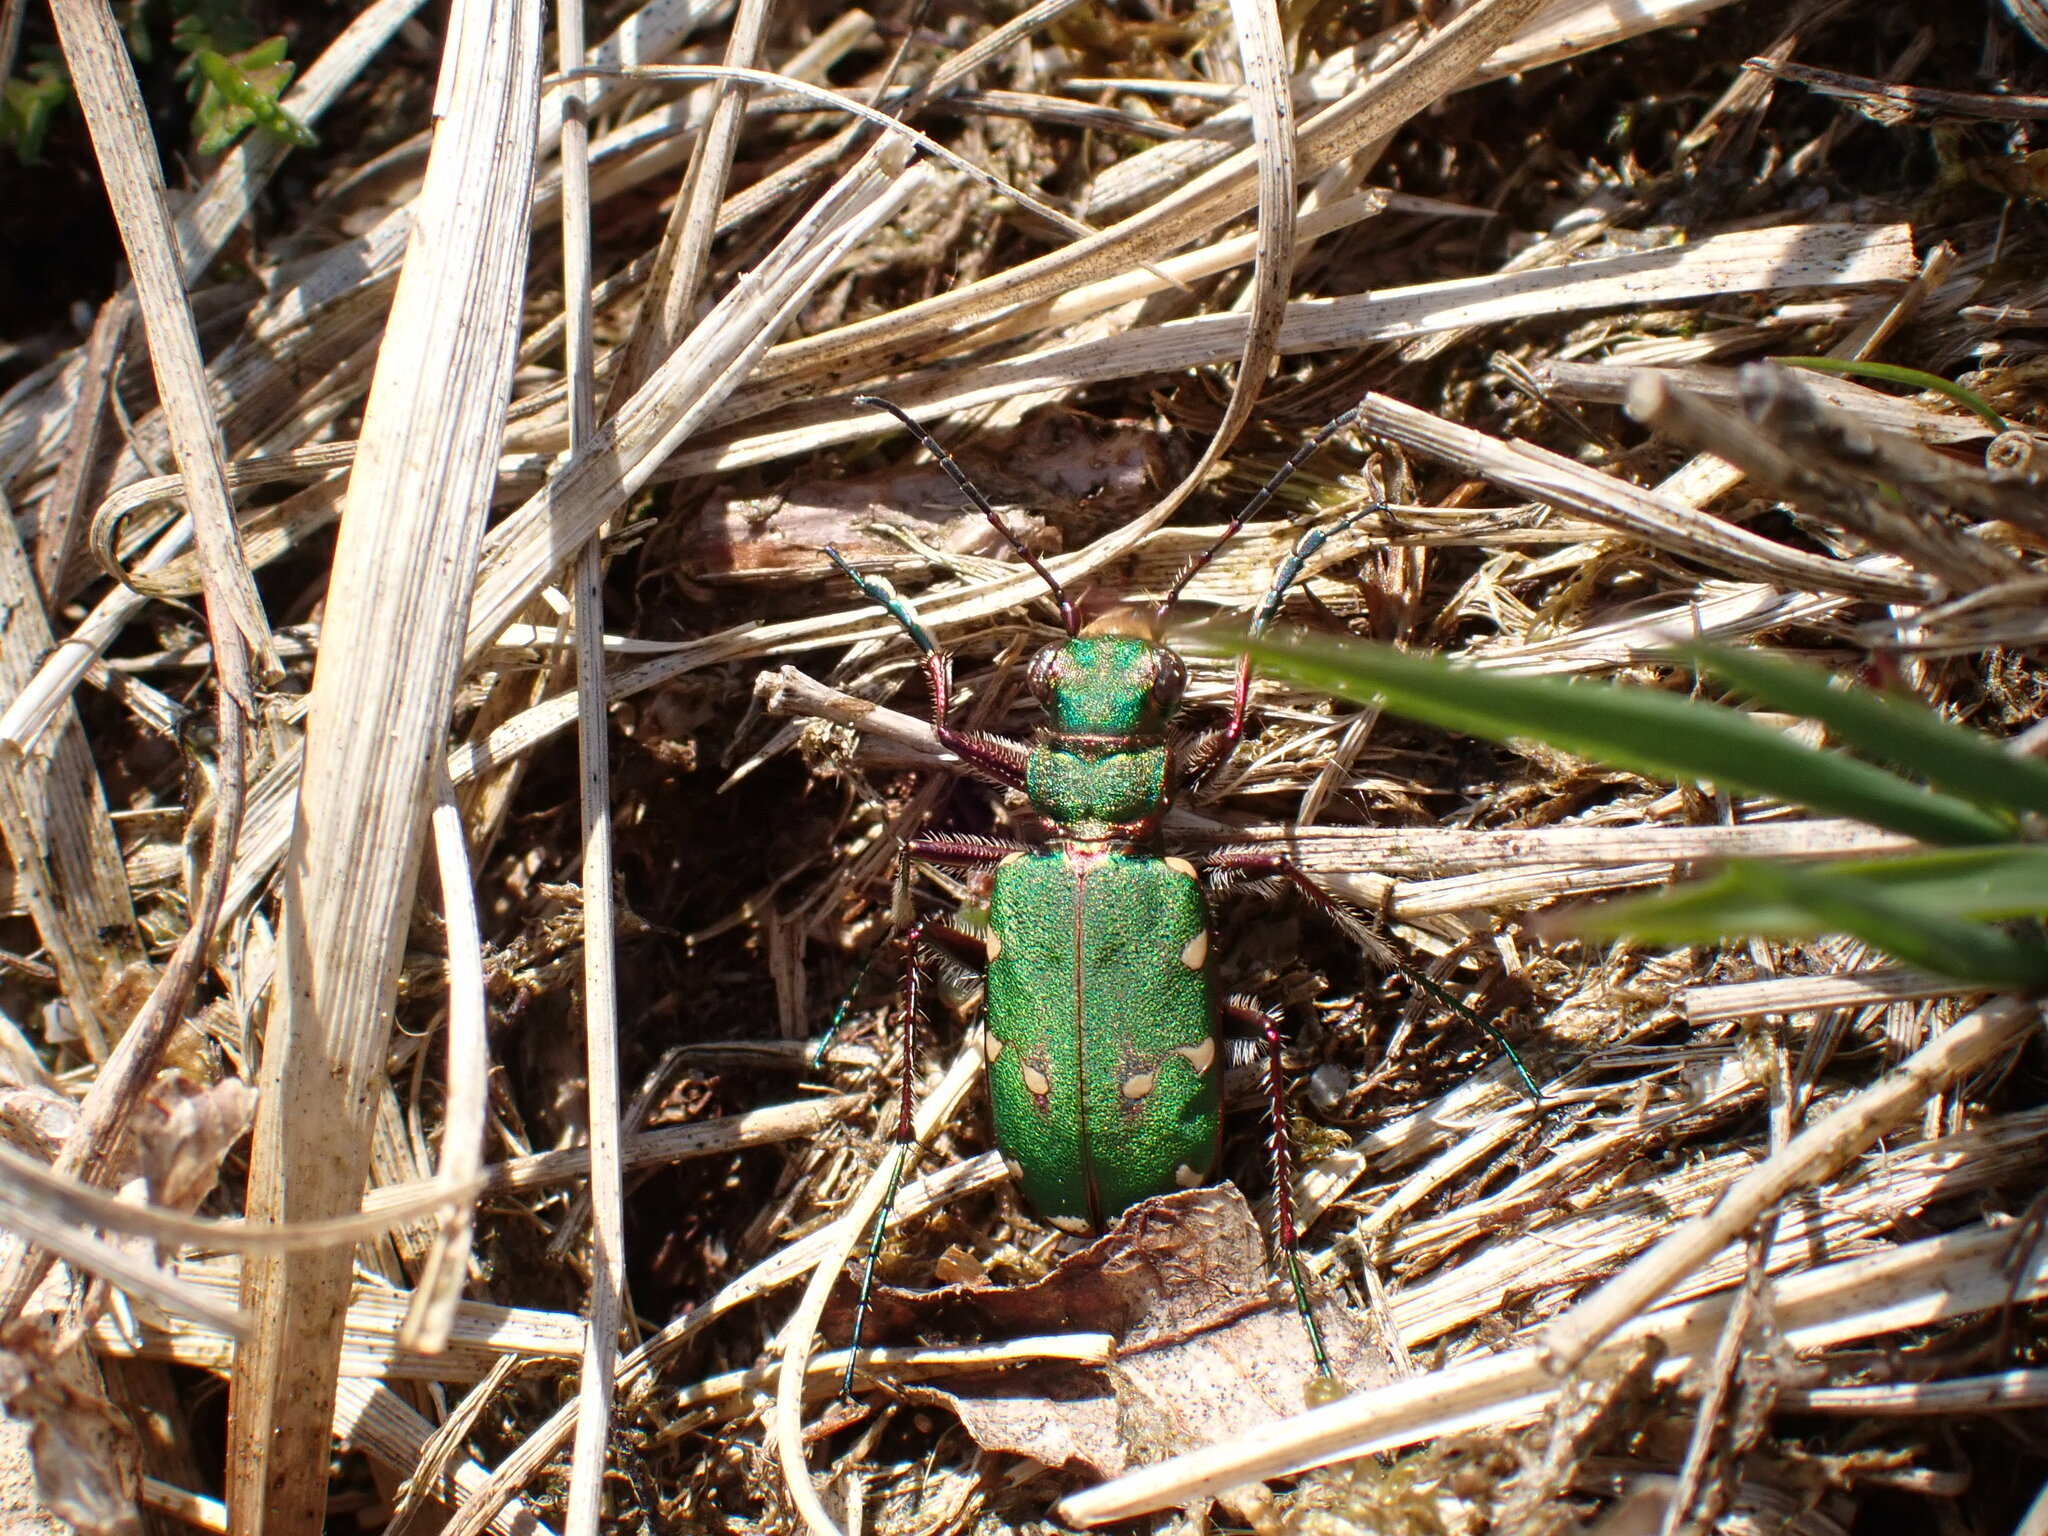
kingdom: Animalia
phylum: Arthropoda
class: Insecta
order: Coleoptera
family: Carabidae
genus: Cicindela
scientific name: Cicindela campestris
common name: Common tiger beetle
